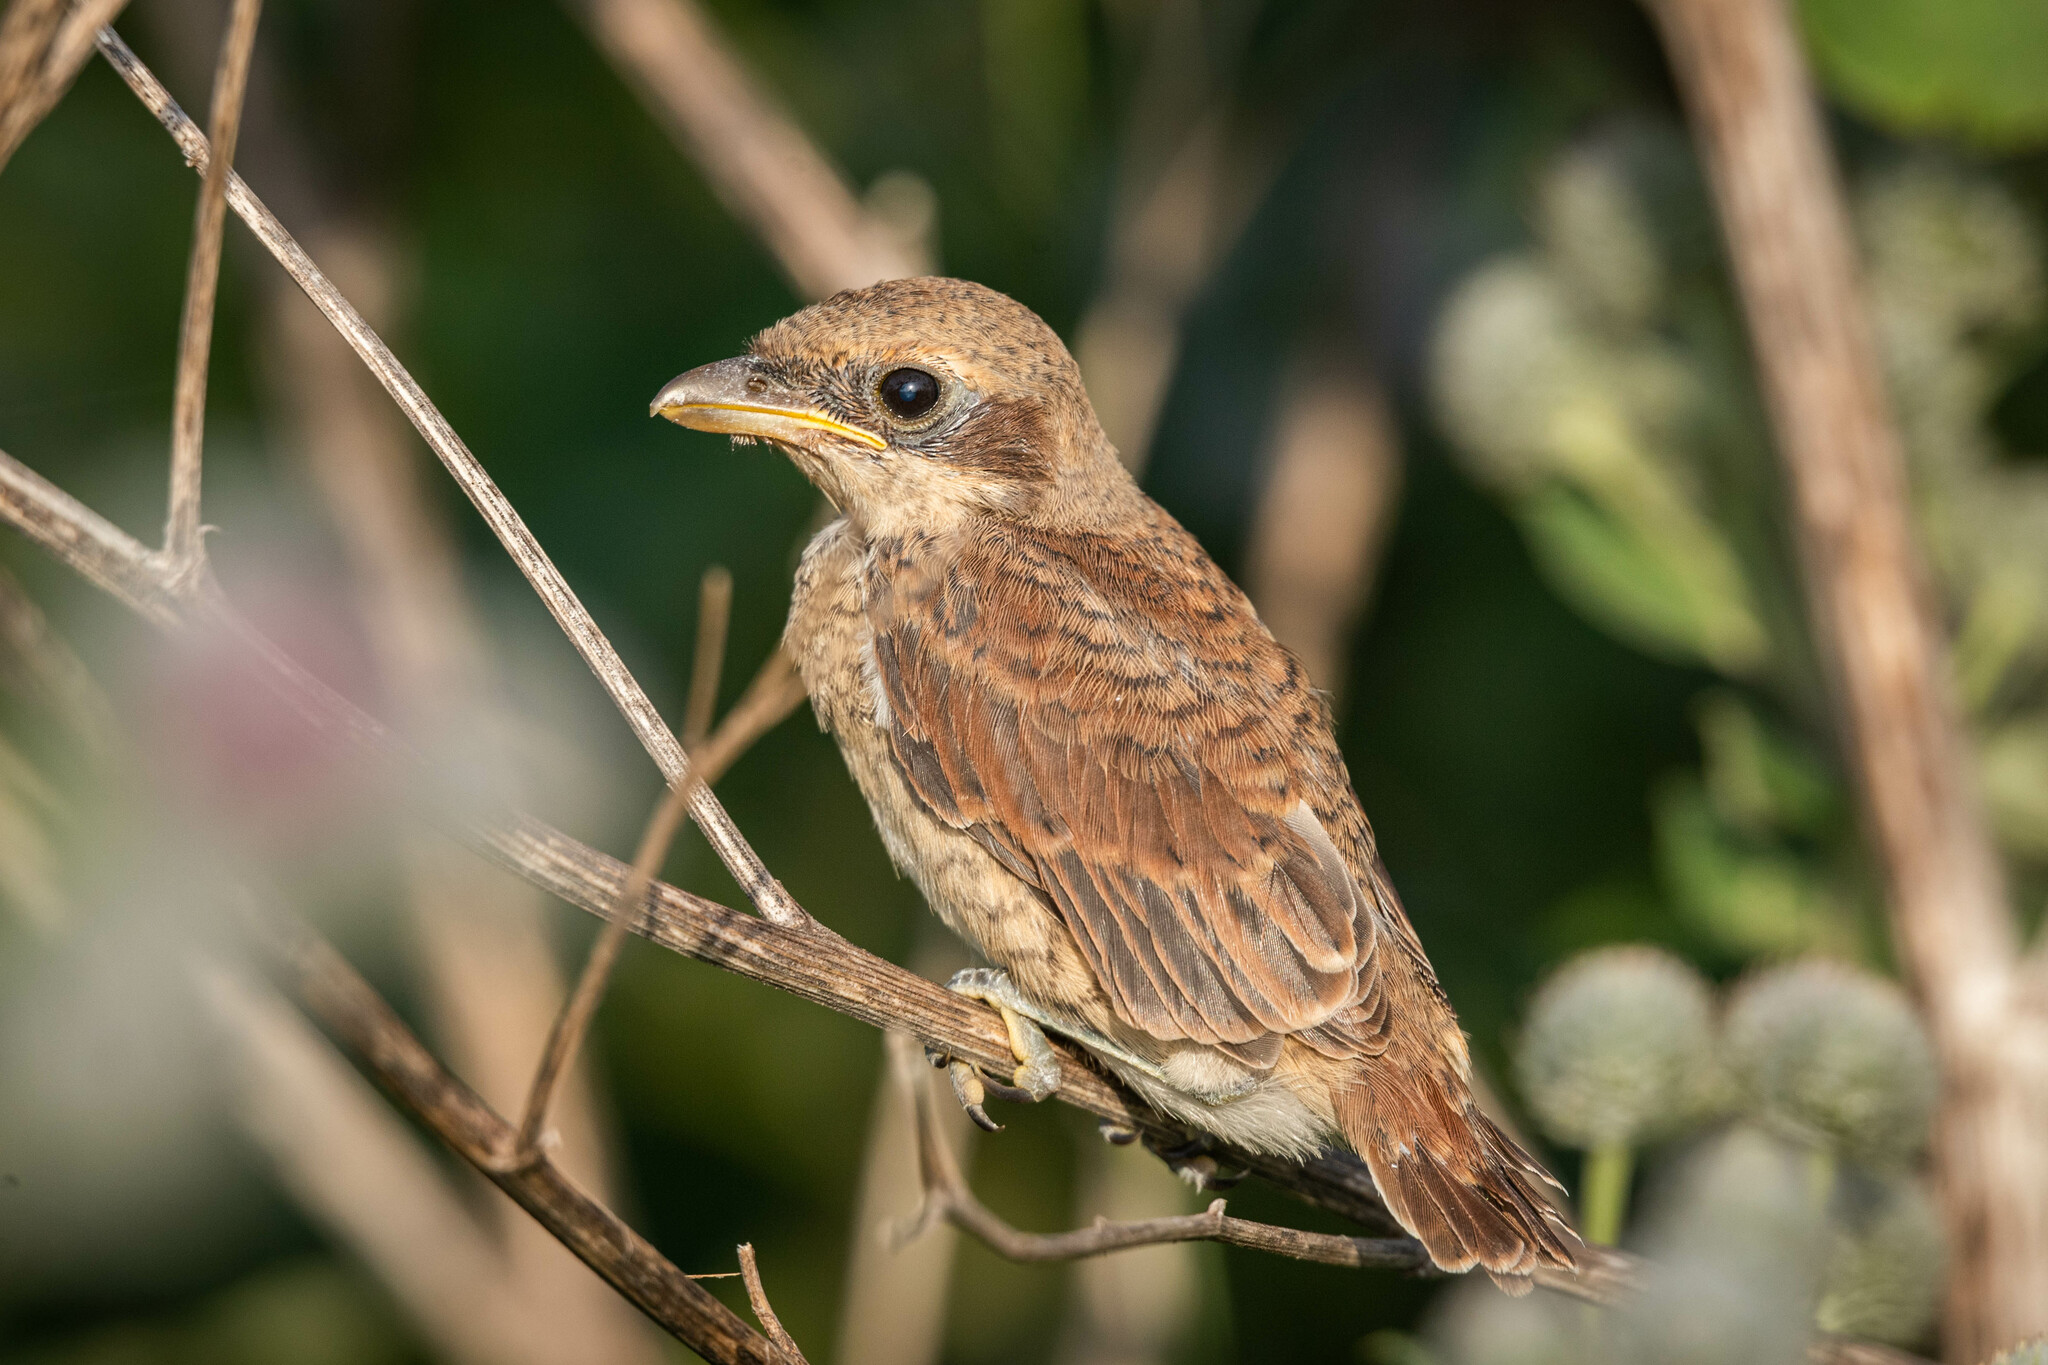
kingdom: Animalia
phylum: Chordata
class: Aves
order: Passeriformes
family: Laniidae
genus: Lanius
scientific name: Lanius collurio
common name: Red-backed shrike
